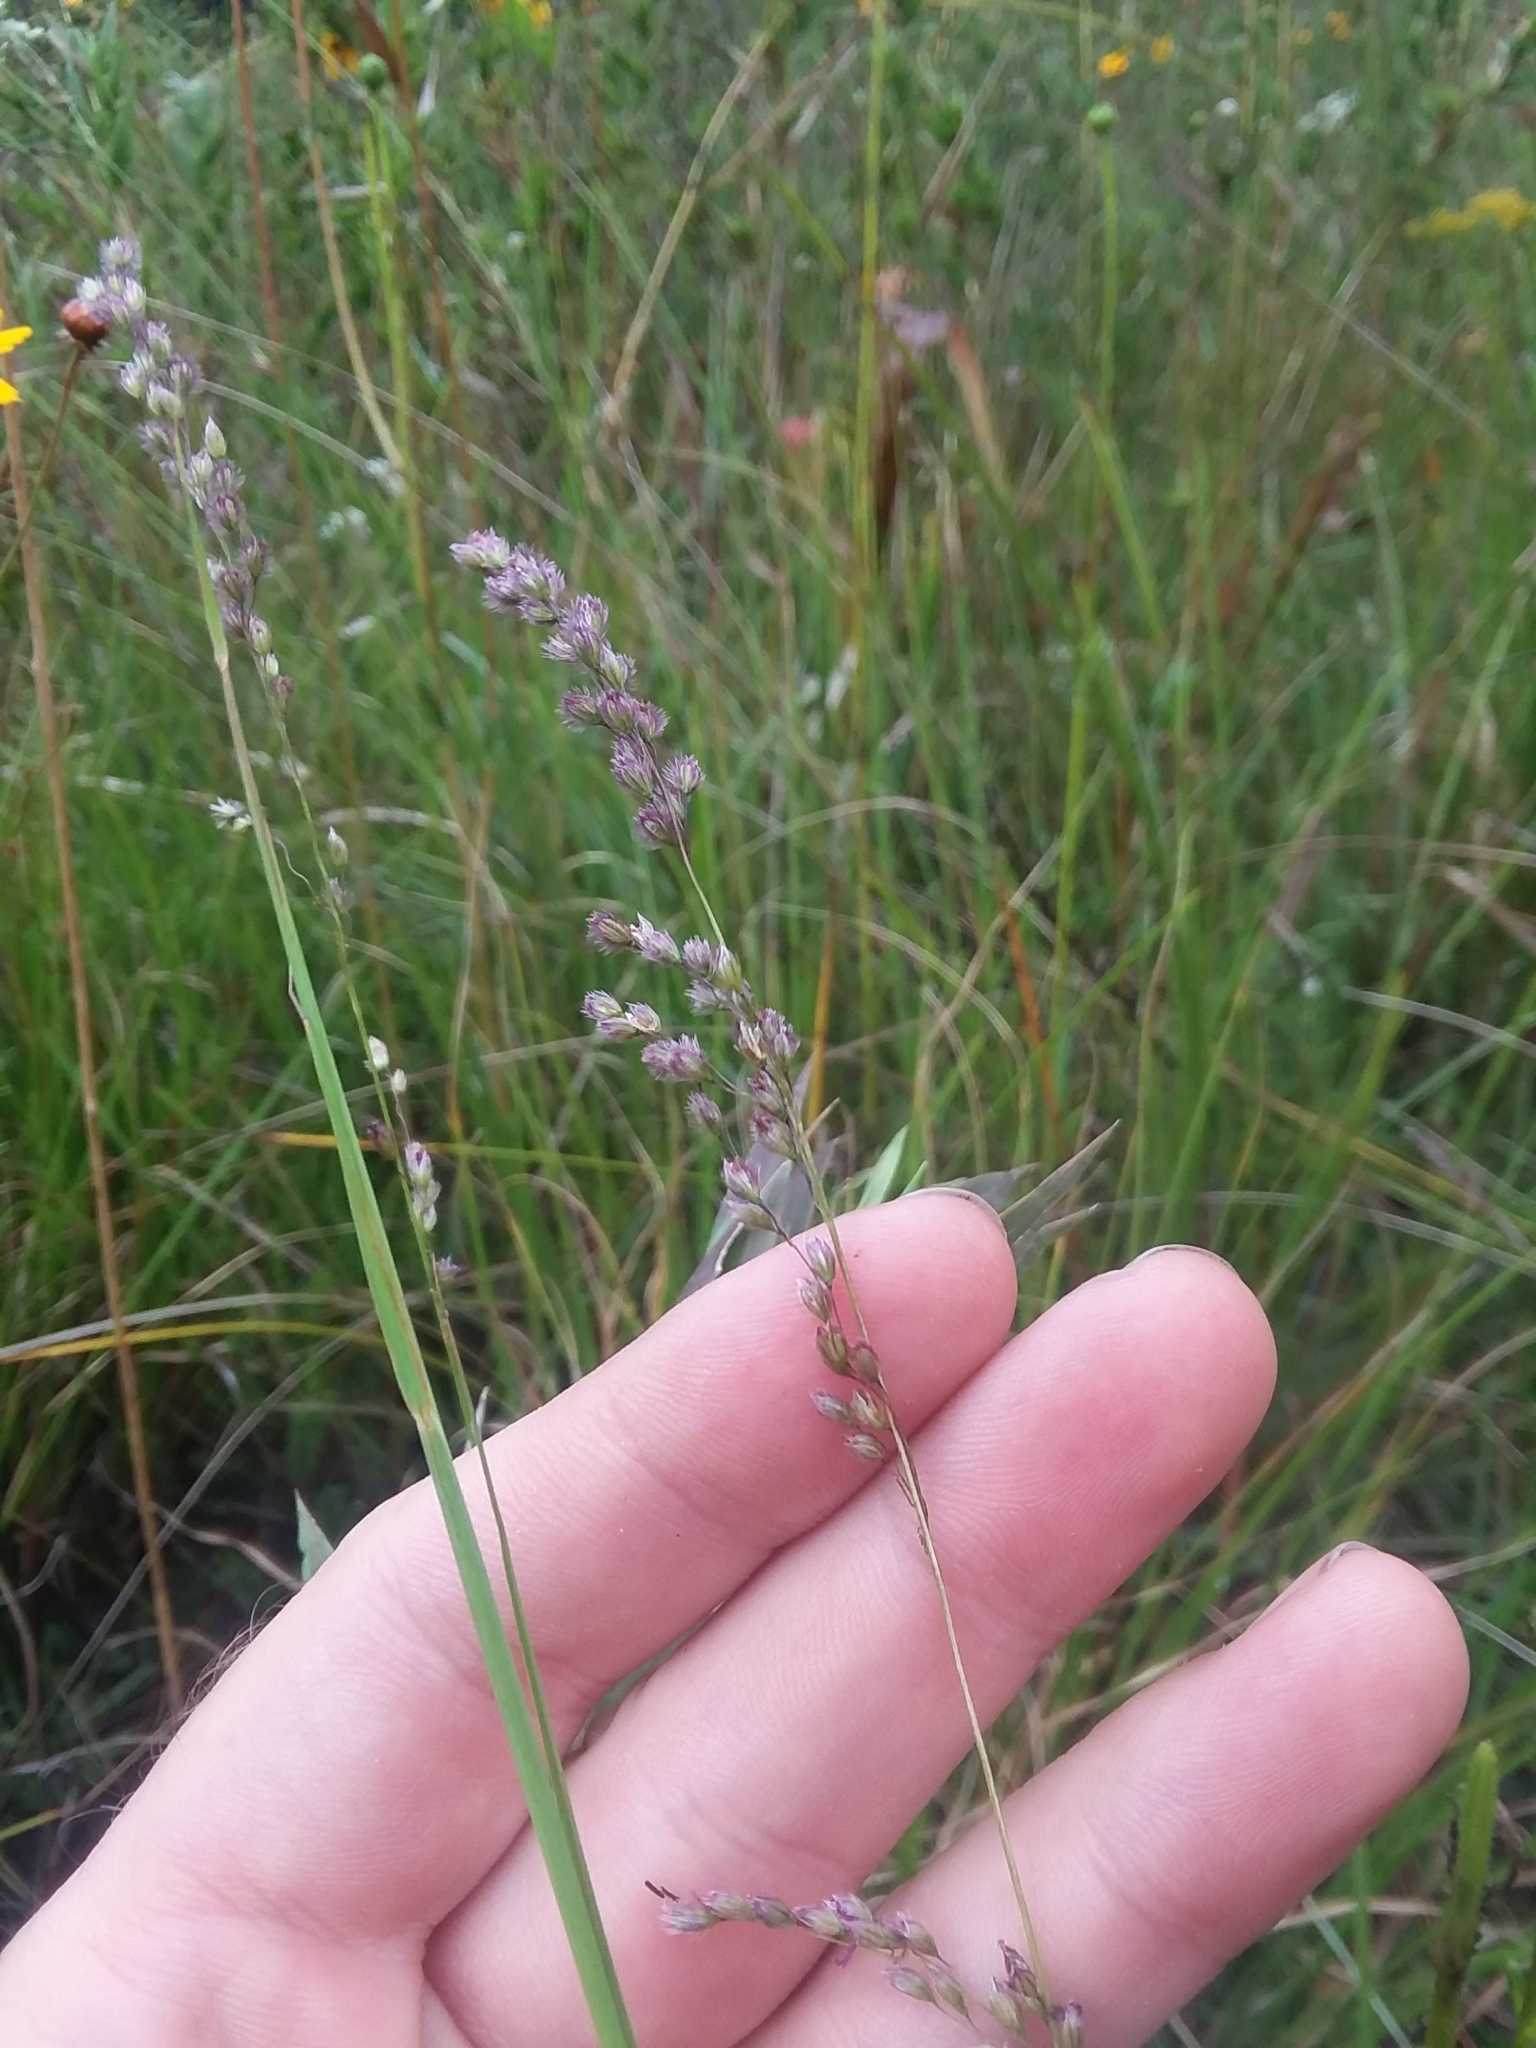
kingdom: Plantae
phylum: Tracheophyta
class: Liliopsida
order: Poales
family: Poaceae
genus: Anthenantia
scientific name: Anthenantia rufa
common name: Purple silkyscale
